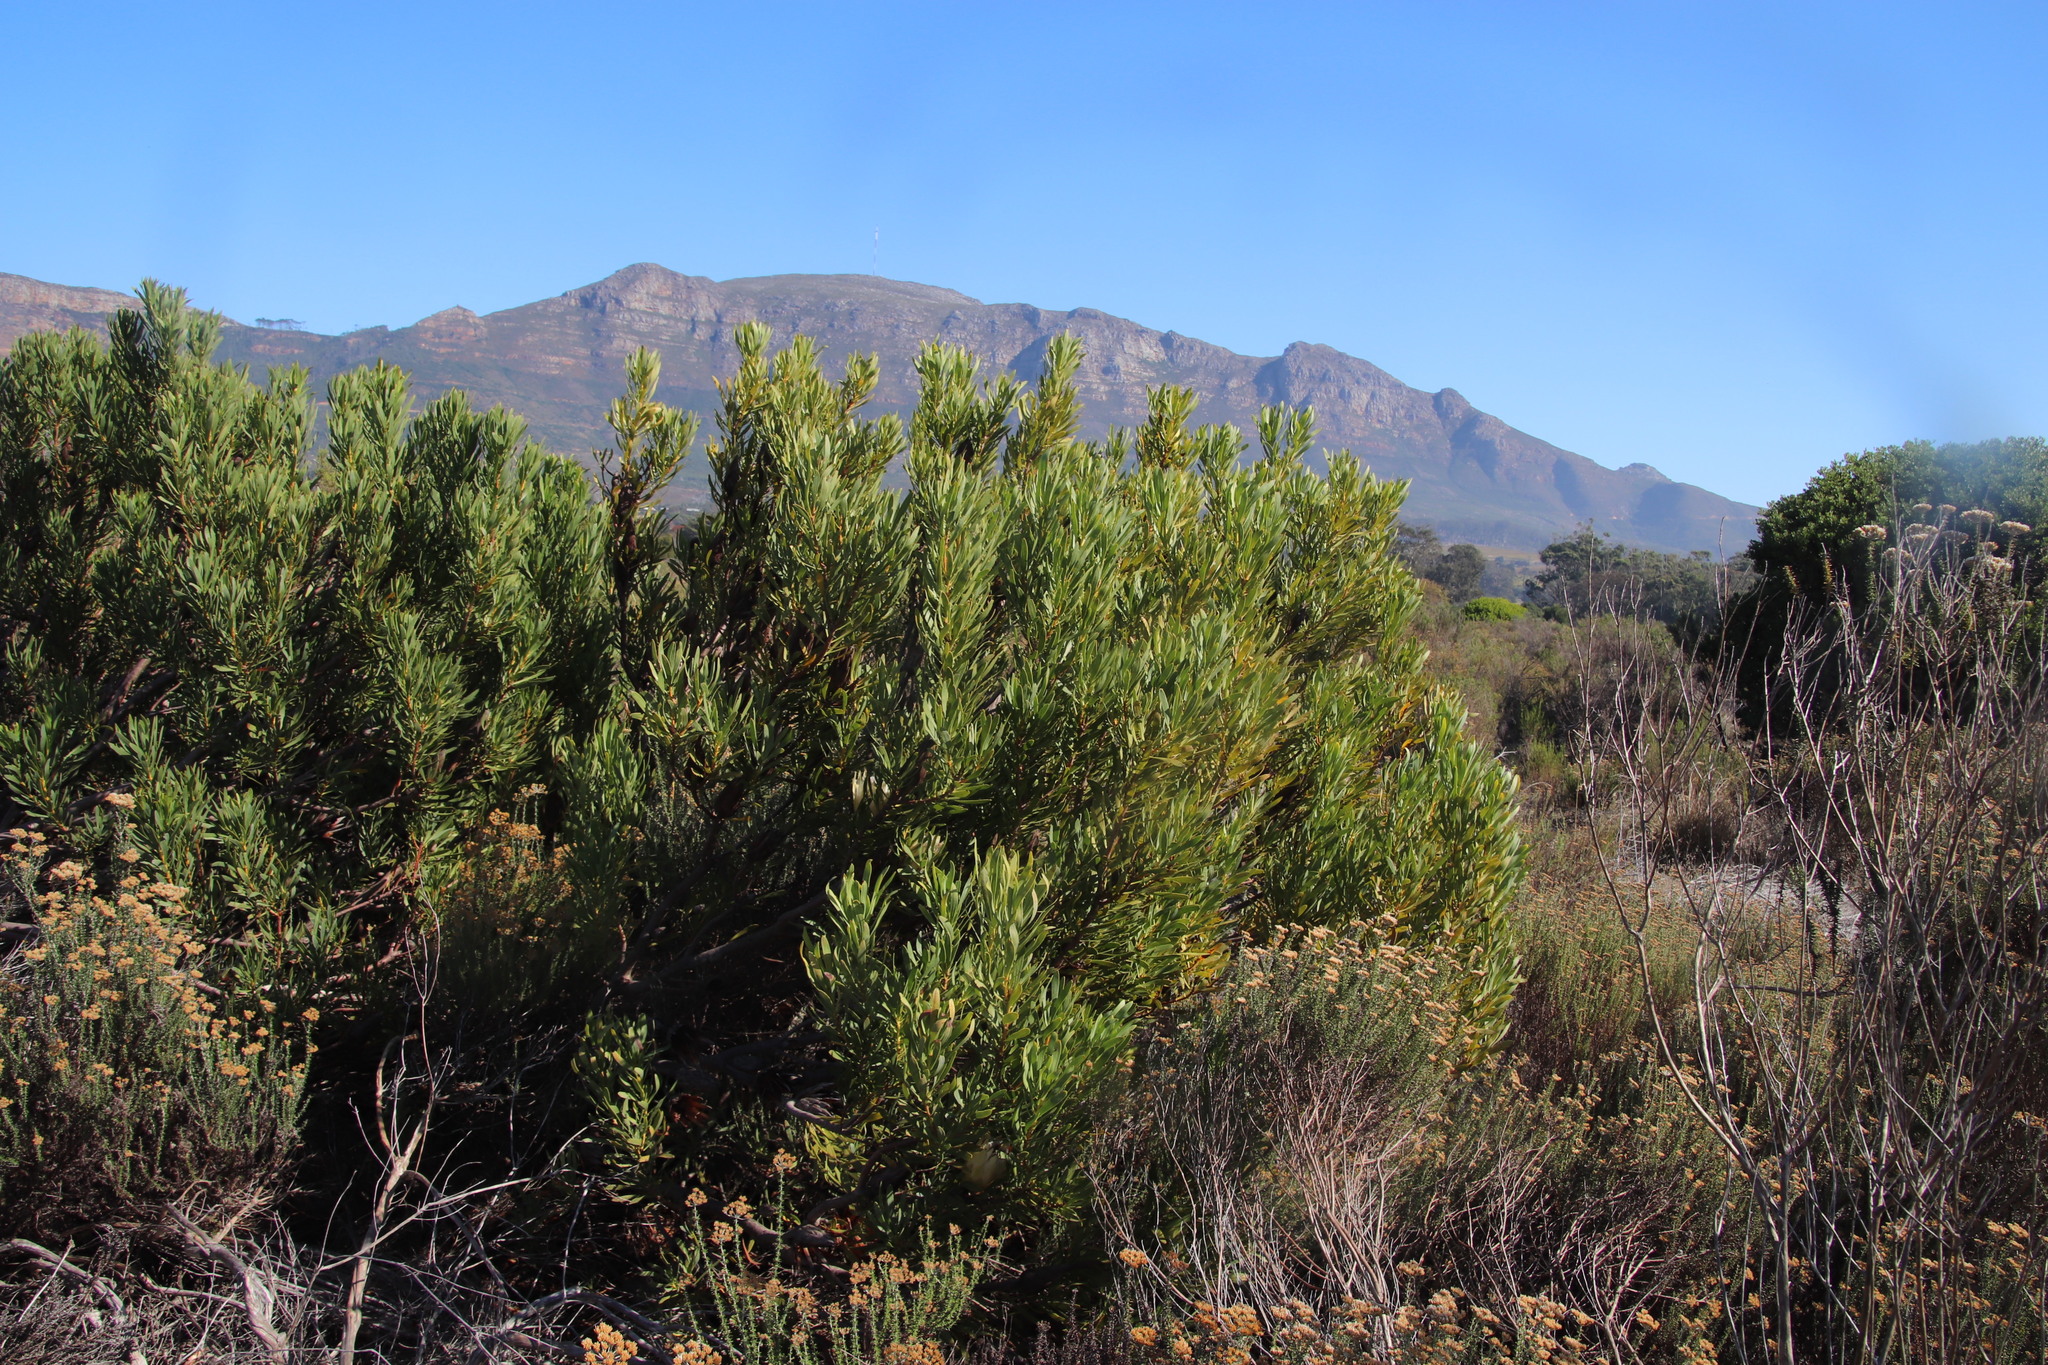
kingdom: Plantae
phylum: Tracheophyta
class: Magnoliopsida
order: Proteales
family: Proteaceae
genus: Protea
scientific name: Protea repens
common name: Sugarbush
